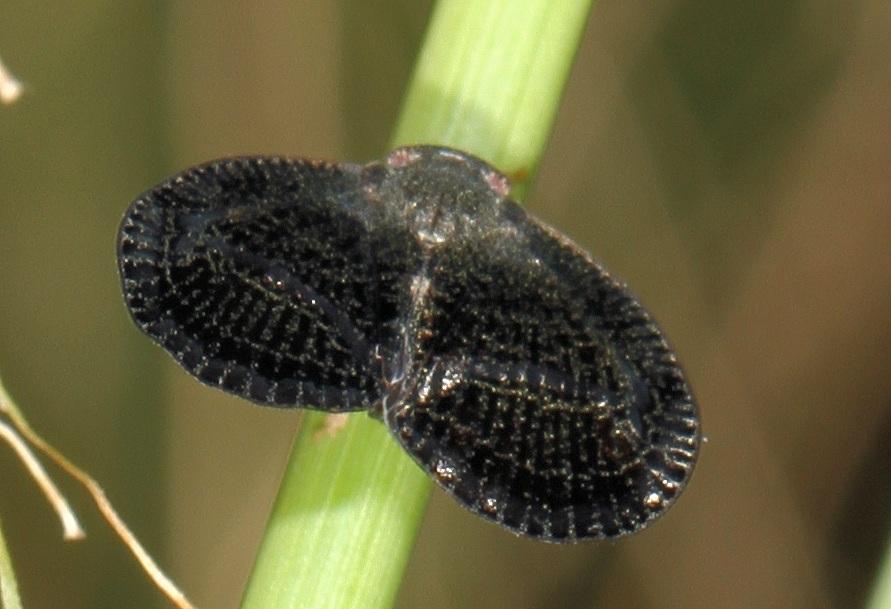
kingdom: Animalia
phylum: Arthropoda
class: Insecta
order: Hemiptera
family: Ricaniidae
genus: Mulvia
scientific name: Mulvia lugens
